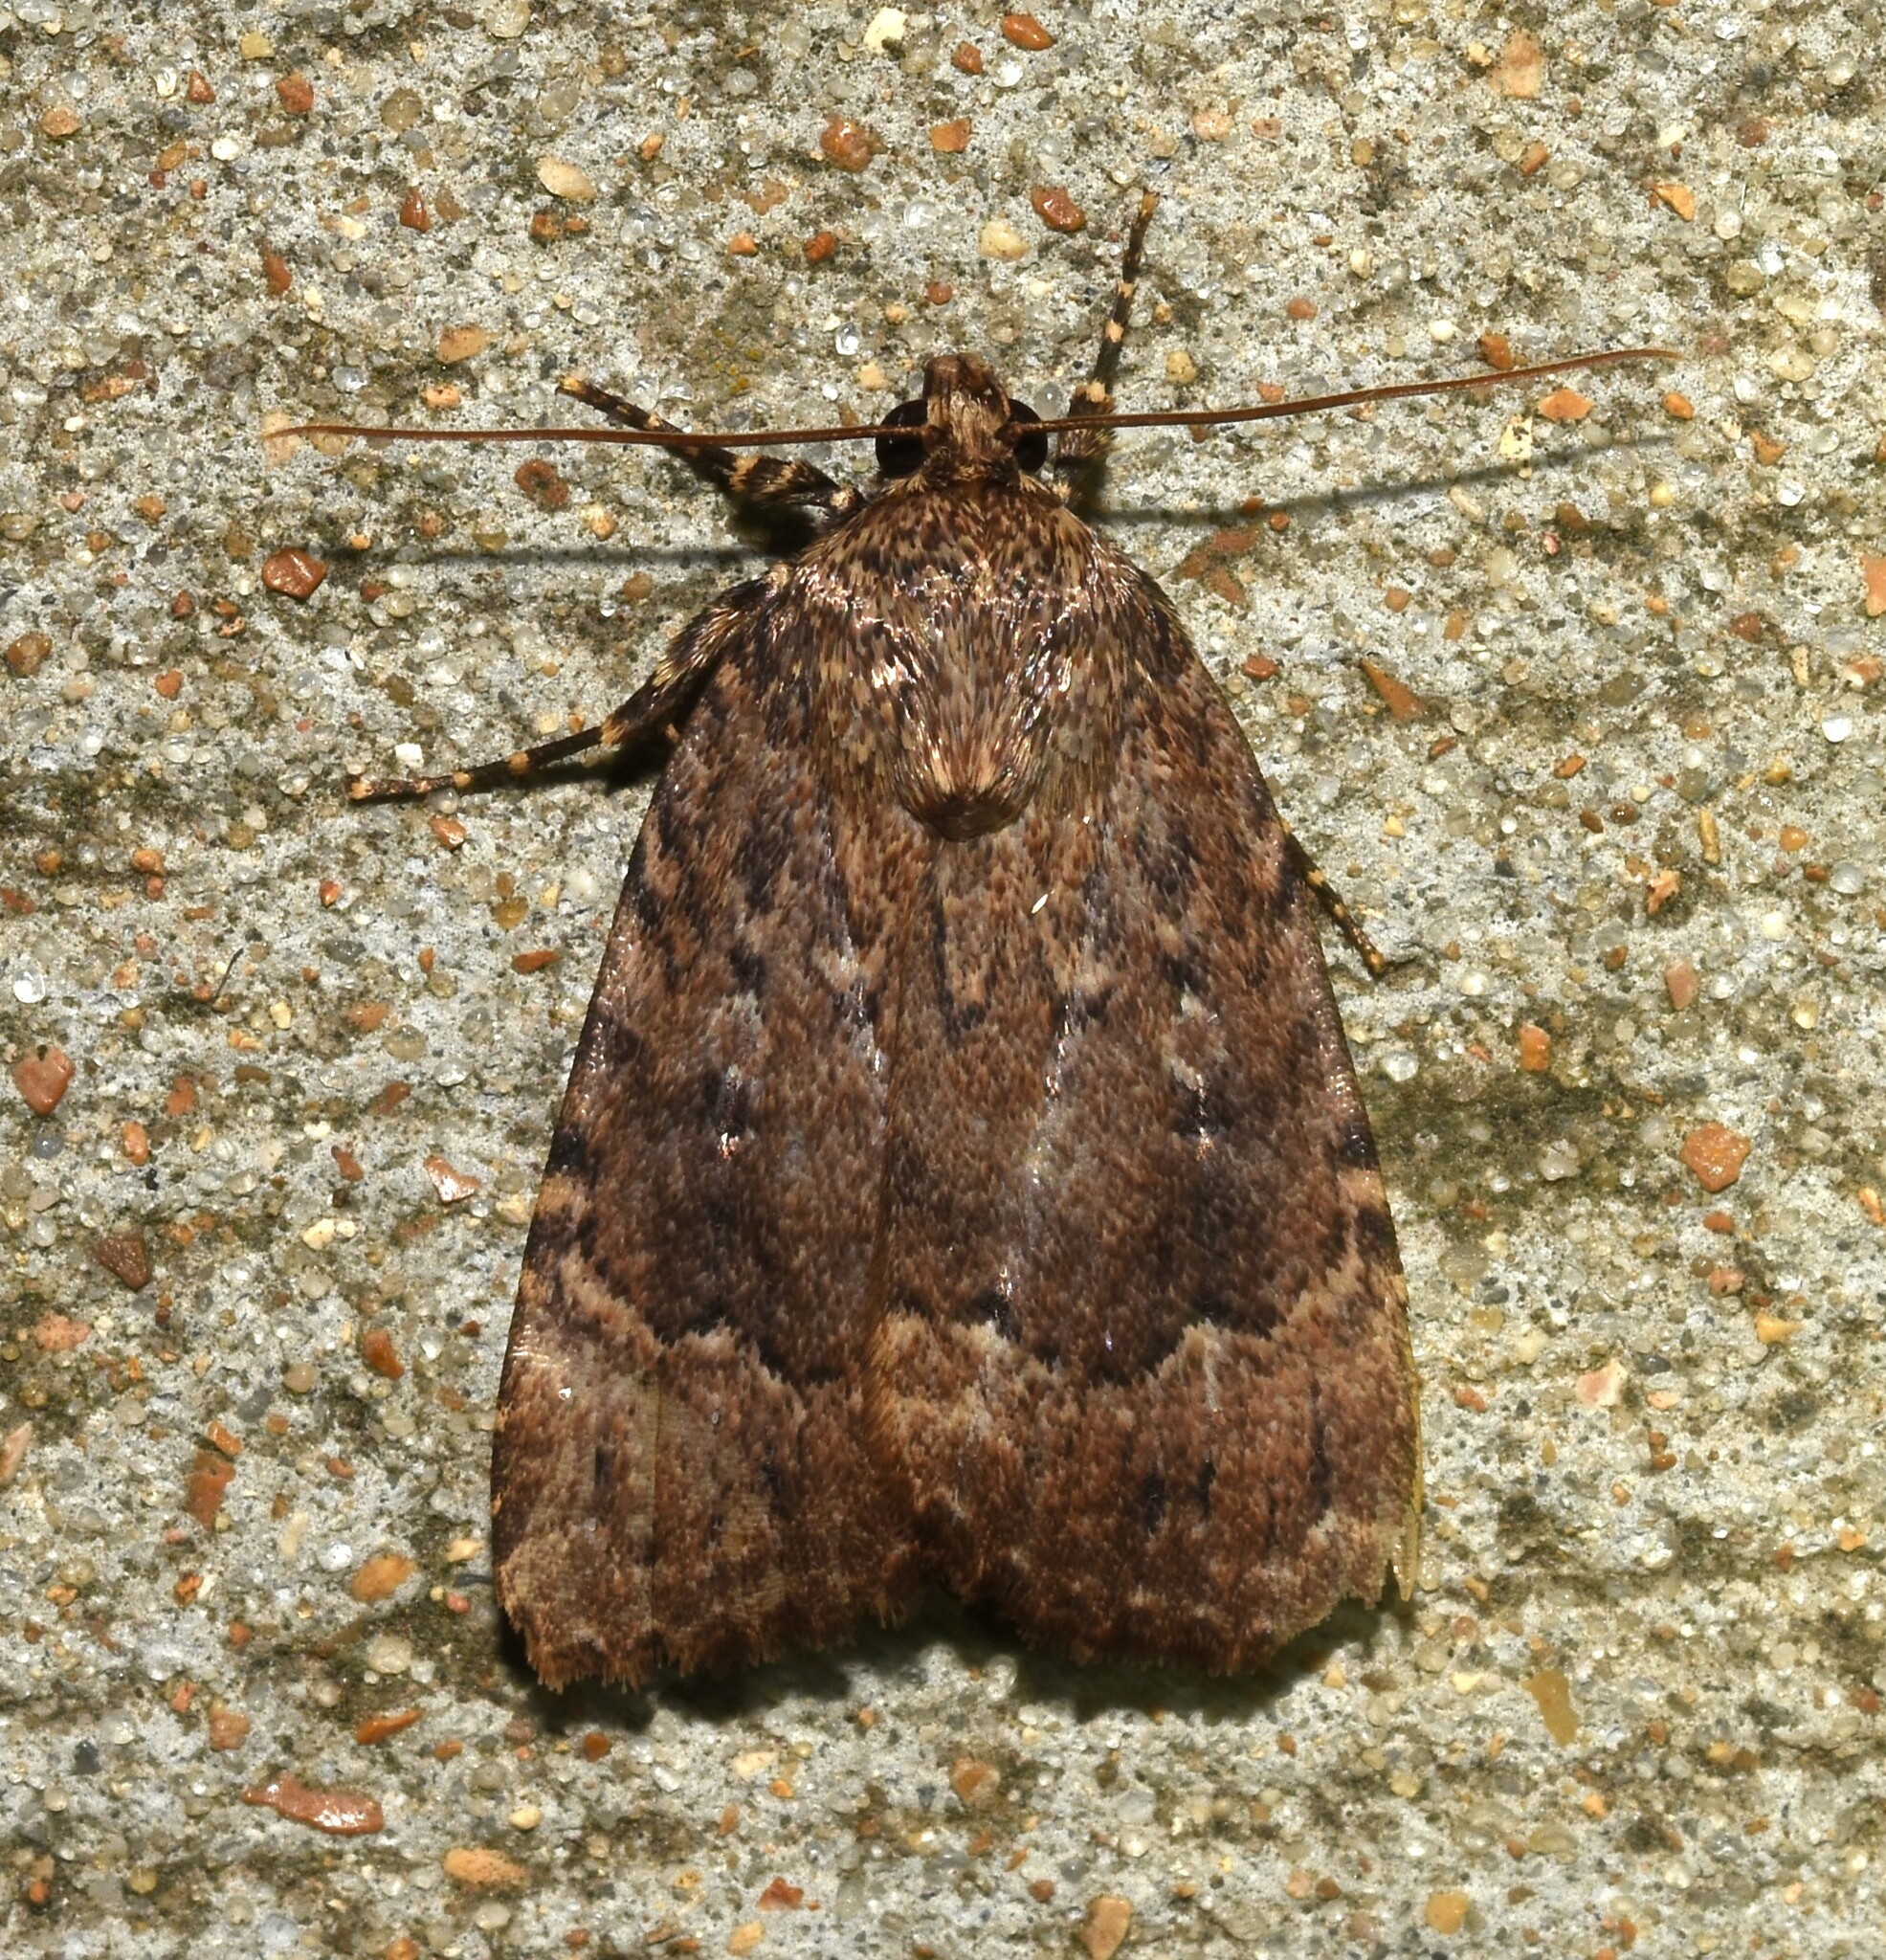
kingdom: Animalia
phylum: Arthropoda
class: Insecta
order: Lepidoptera
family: Noctuidae
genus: Amphipyra
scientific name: Amphipyra pyramidoides
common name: American copper underwing
